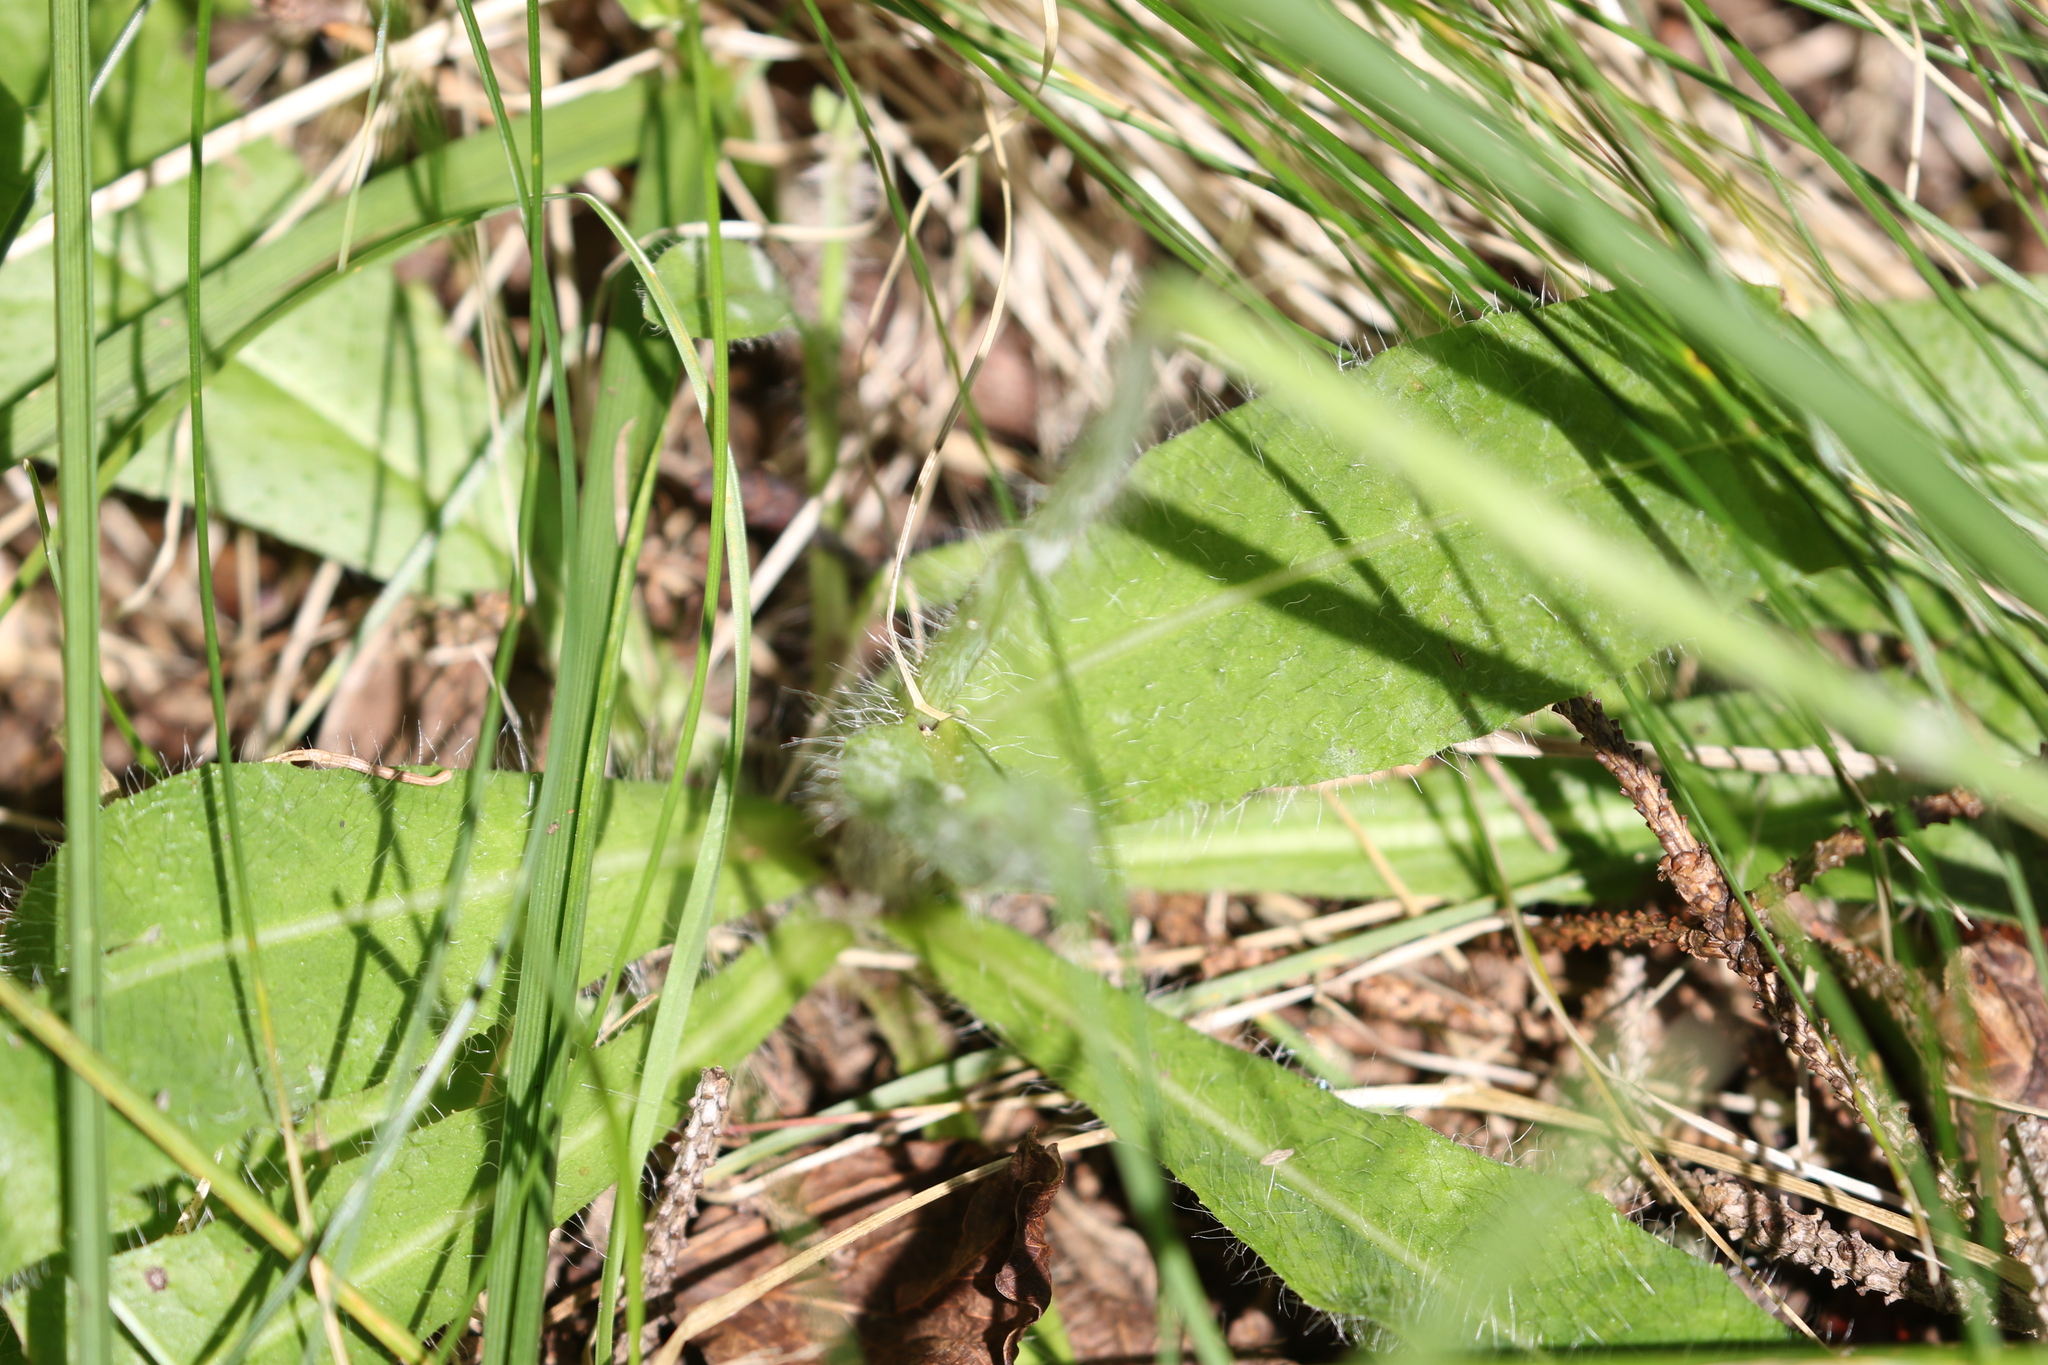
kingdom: Plantae
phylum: Tracheophyta
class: Magnoliopsida
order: Asterales
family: Asteraceae
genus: Pilosella
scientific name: Pilosella aurantiaca
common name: Fox-and-cubs
